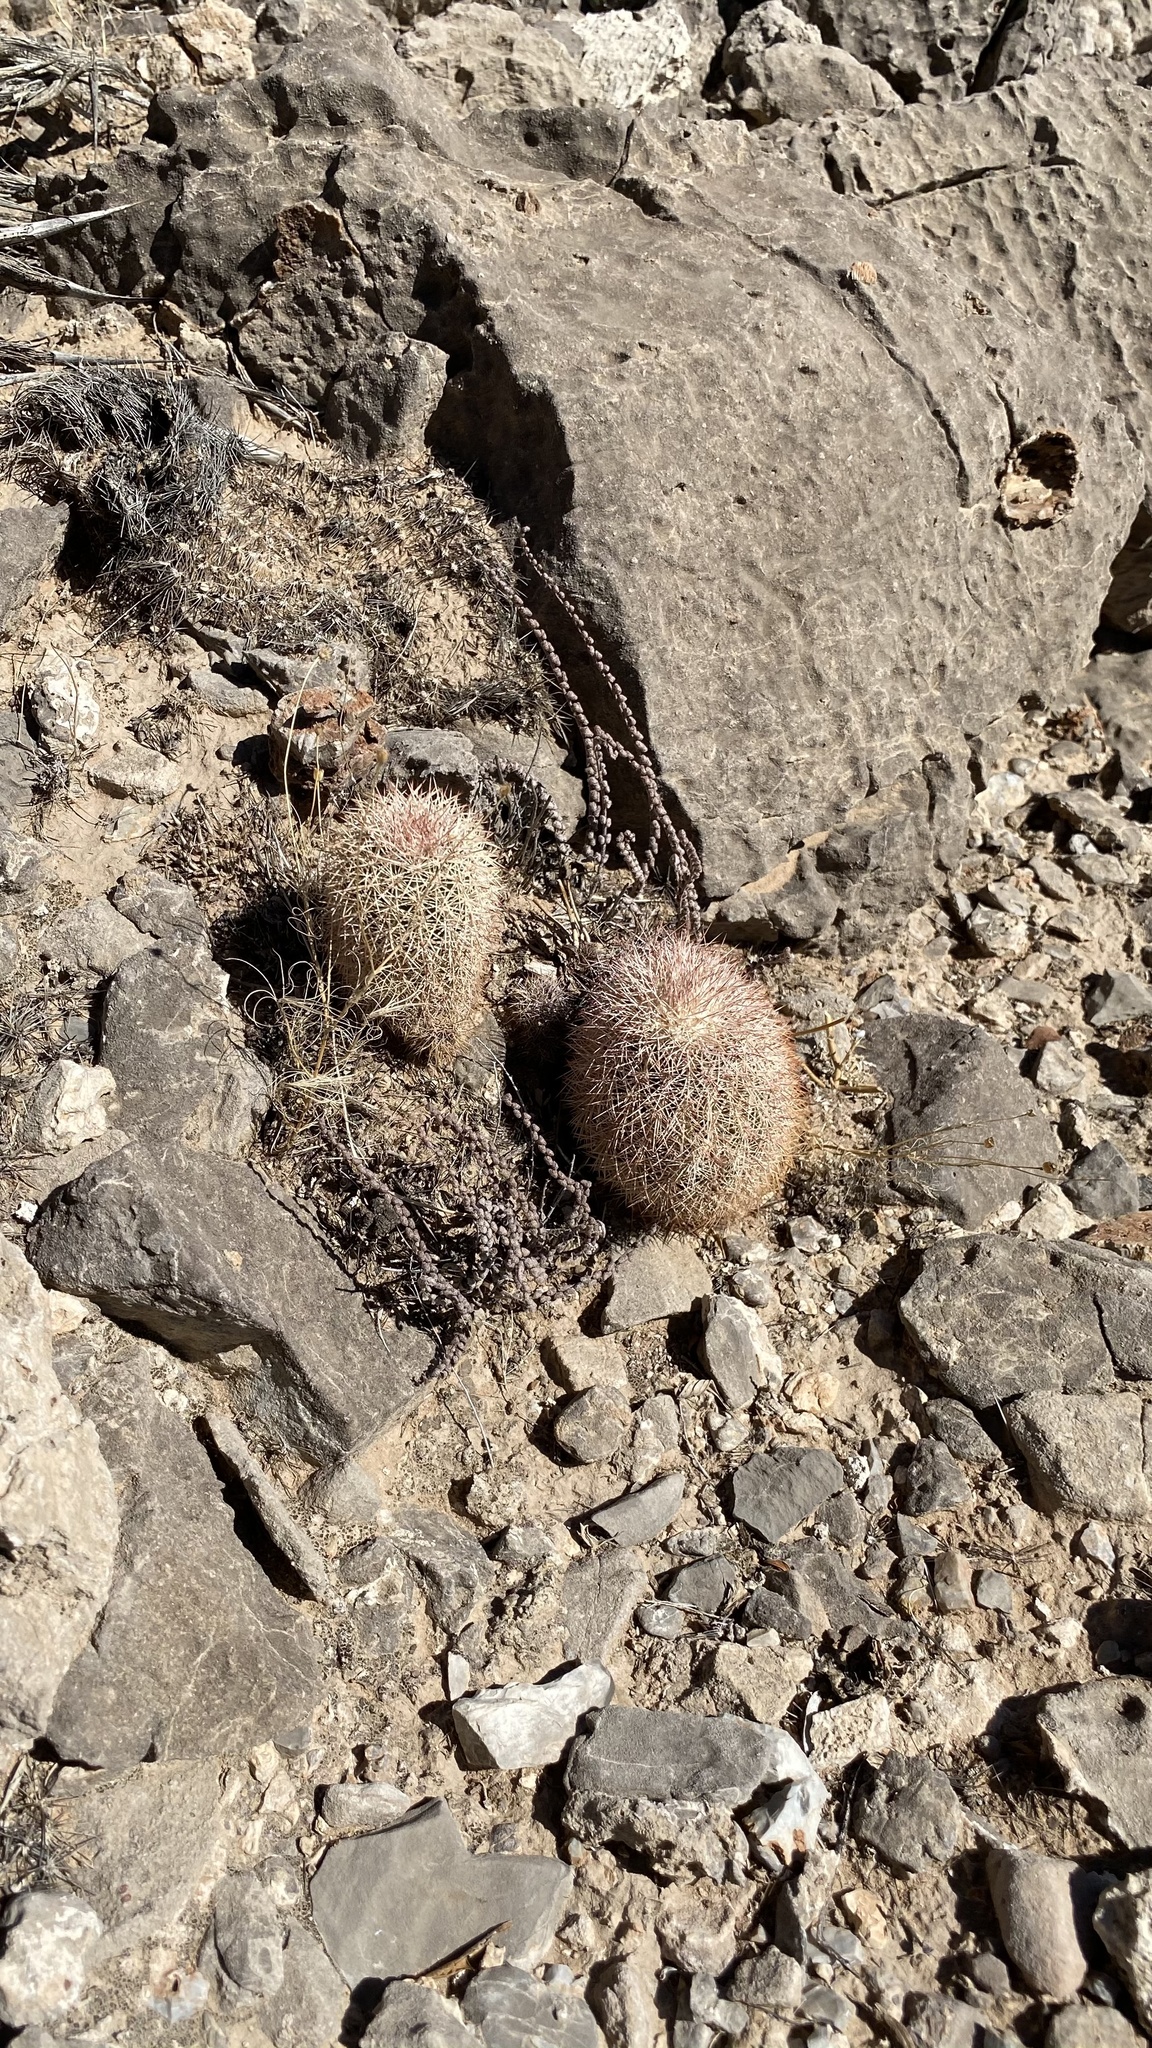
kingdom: Plantae
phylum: Tracheophyta
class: Magnoliopsida
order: Caryophyllales
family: Cactaceae
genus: Echinocereus
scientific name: Echinocereus dasyacanthus
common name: Spiny hedgehog cactus
